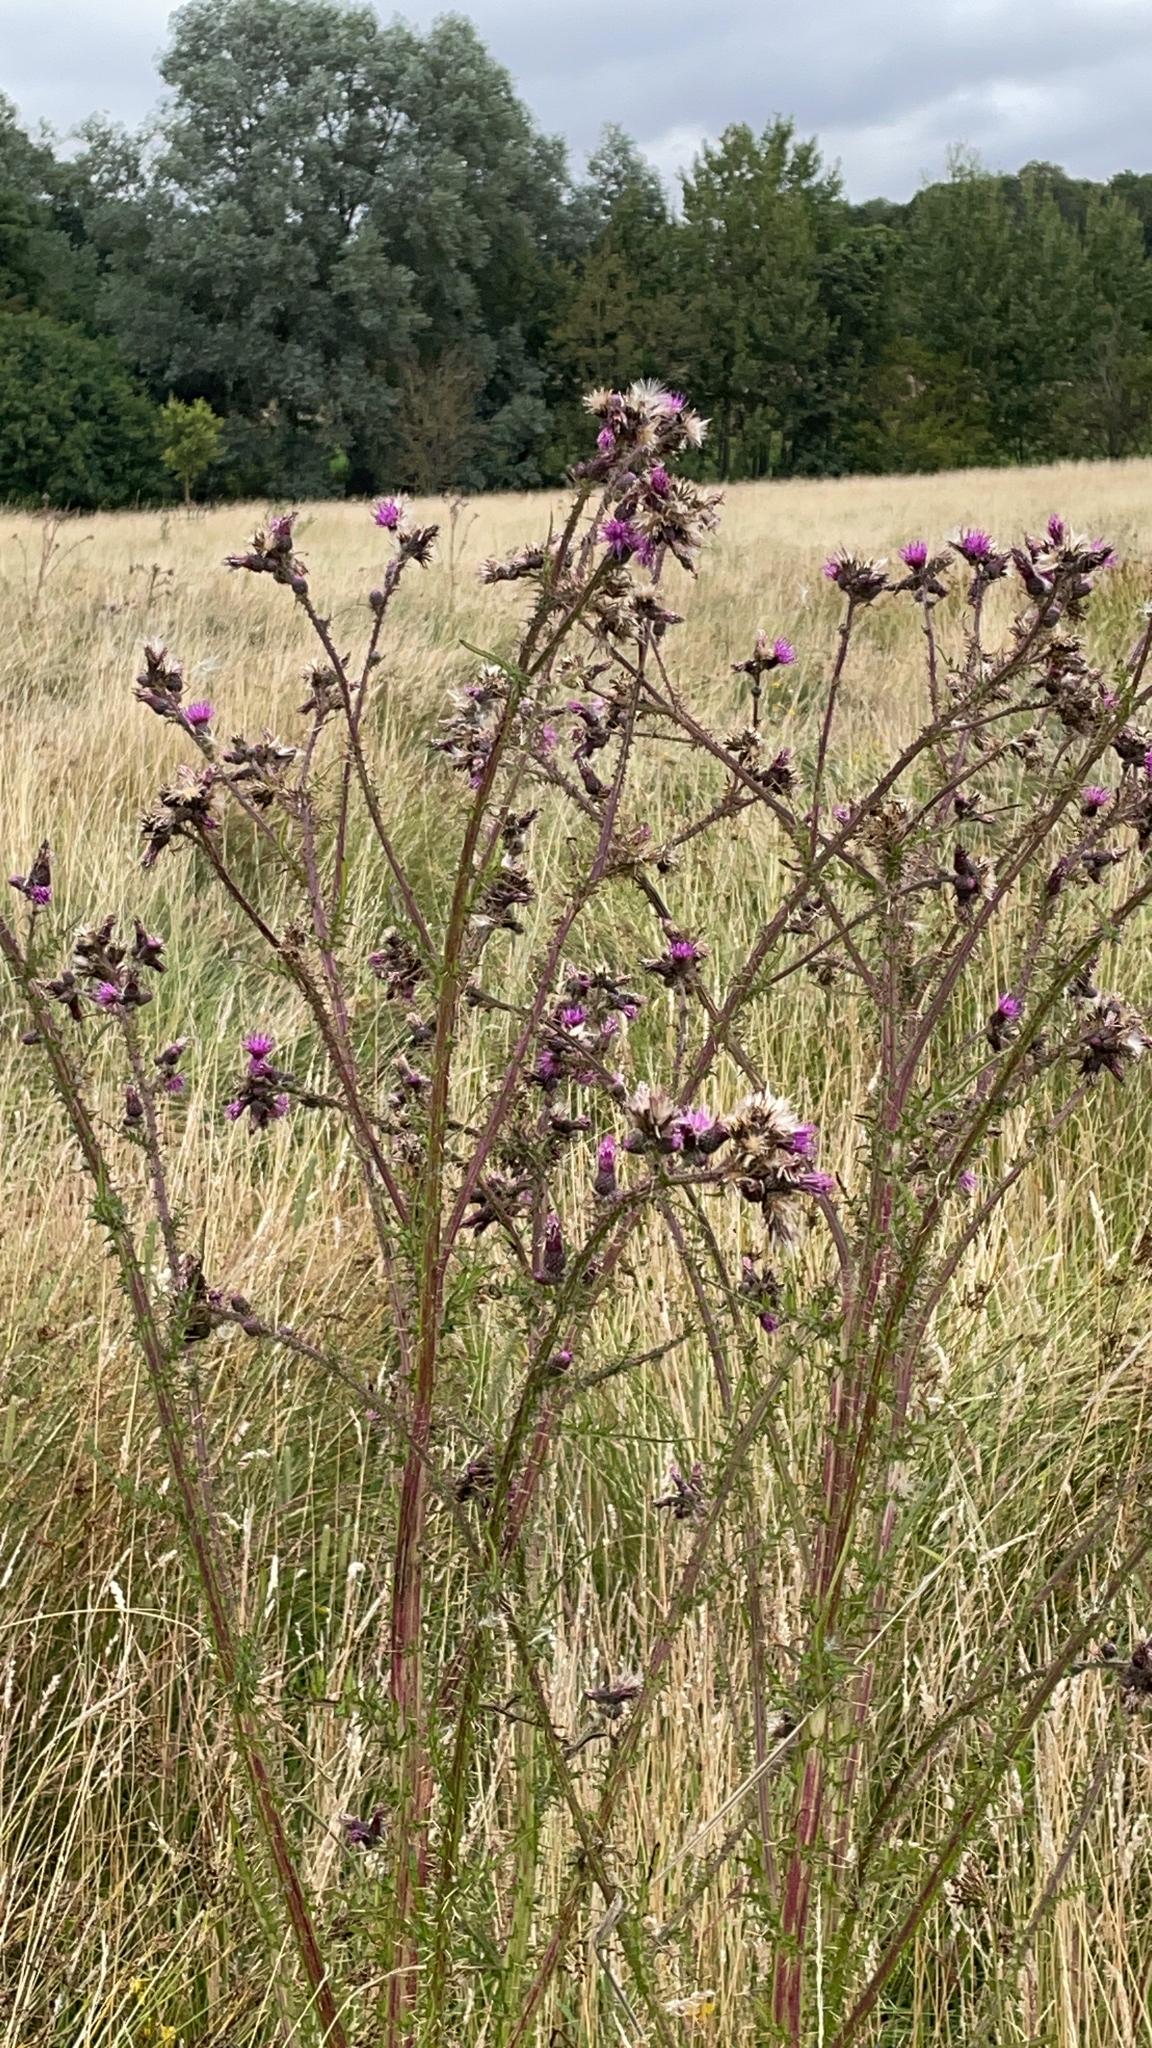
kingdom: Plantae
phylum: Tracheophyta
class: Magnoliopsida
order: Asterales
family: Asteraceae
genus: Cirsium
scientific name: Cirsium palustre
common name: Marsh thistle
